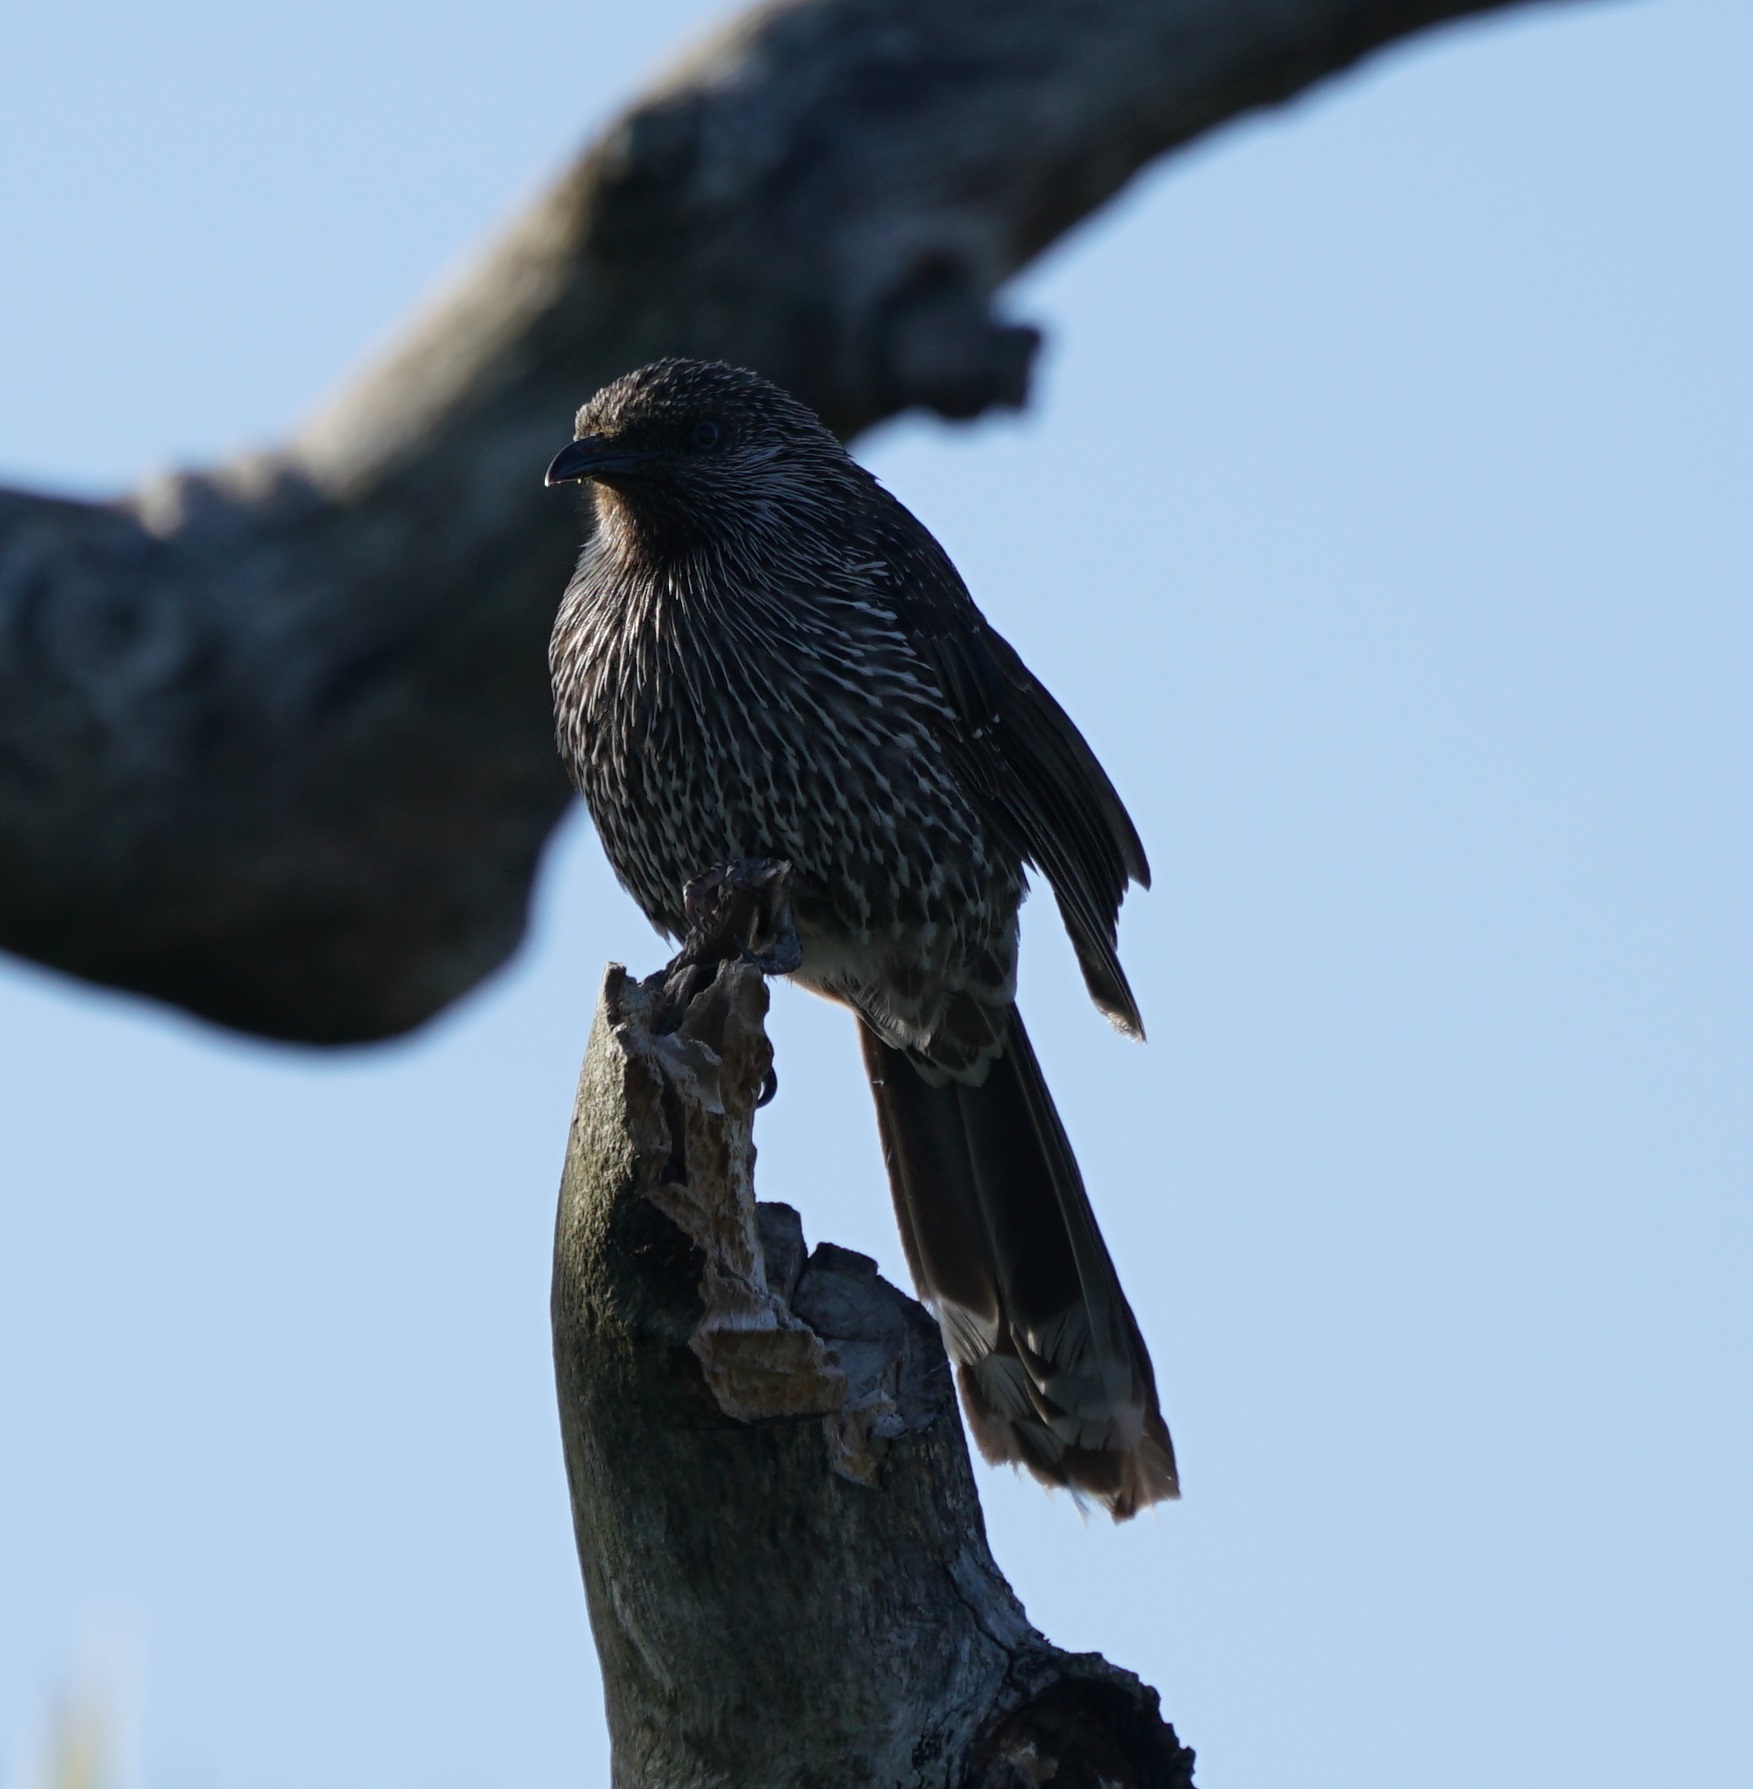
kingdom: Animalia
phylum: Chordata
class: Aves
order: Passeriformes
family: Meliphagidae
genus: Anthochaera
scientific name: Anthochaera chrysoptera
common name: Little wattlebird
